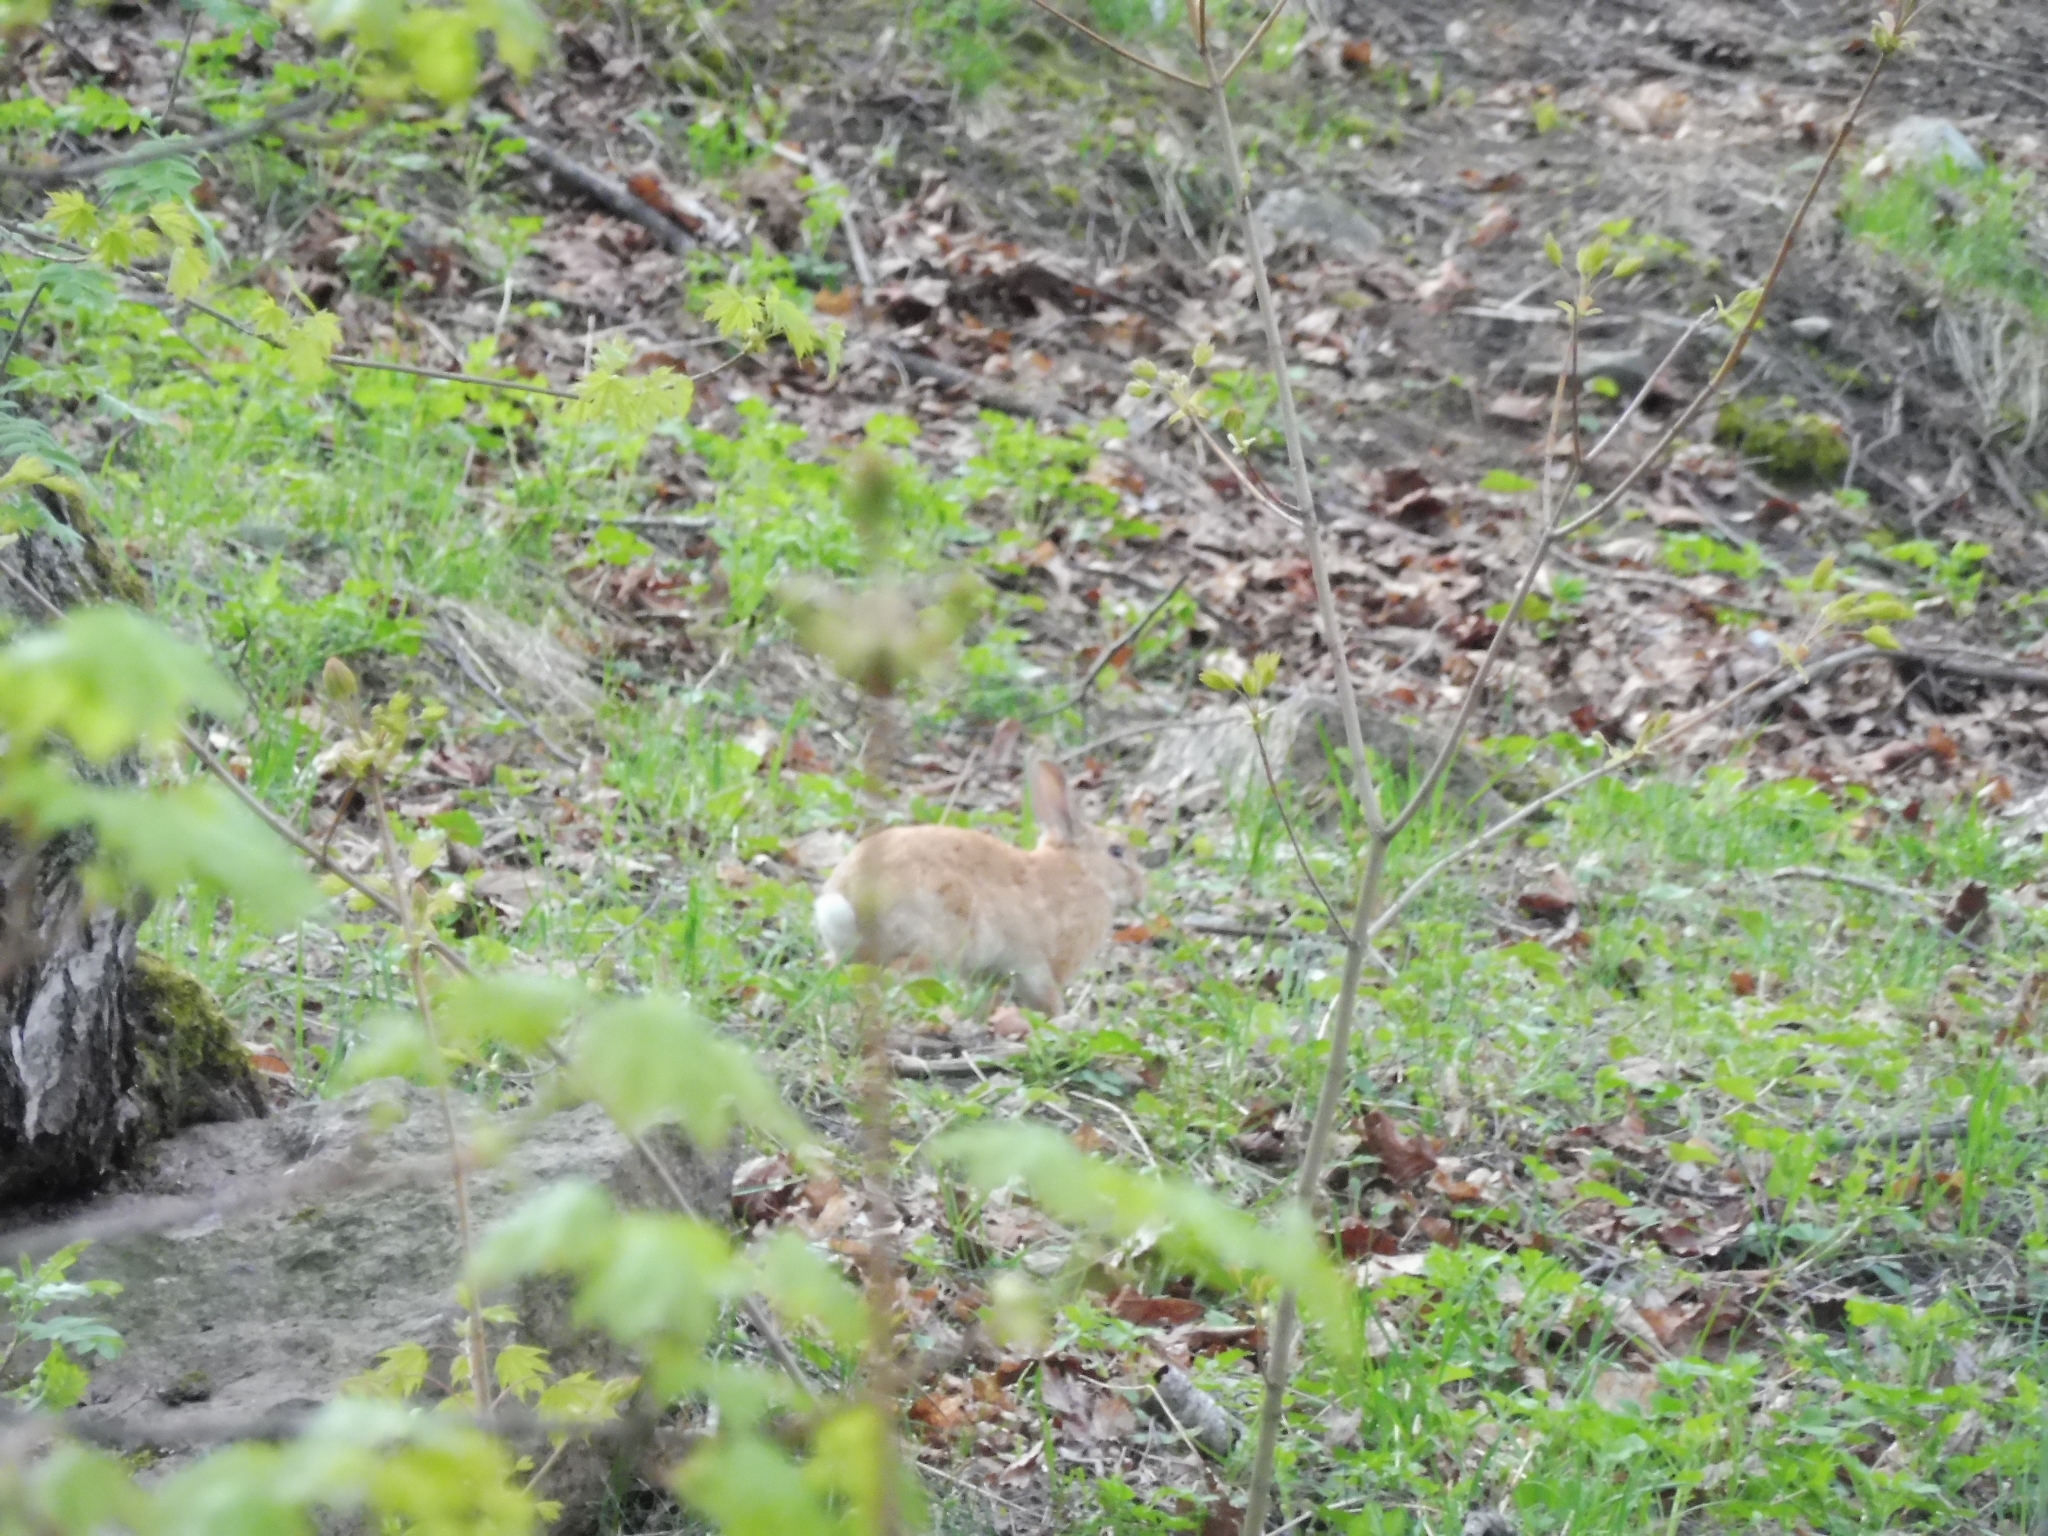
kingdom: Animalia
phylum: Chordata
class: Mammalia
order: Lagomorpha
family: Leporidae
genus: Oryctolagus
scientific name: Oryctolagus cuniculus
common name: European rabbit
